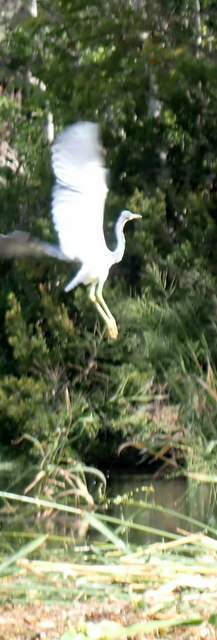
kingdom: Animalia
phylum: Chordata
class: Aves
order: Pelecaniformes
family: Threskiornithidae
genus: Eudocimus
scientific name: Eudocimus albus
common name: White ibis
